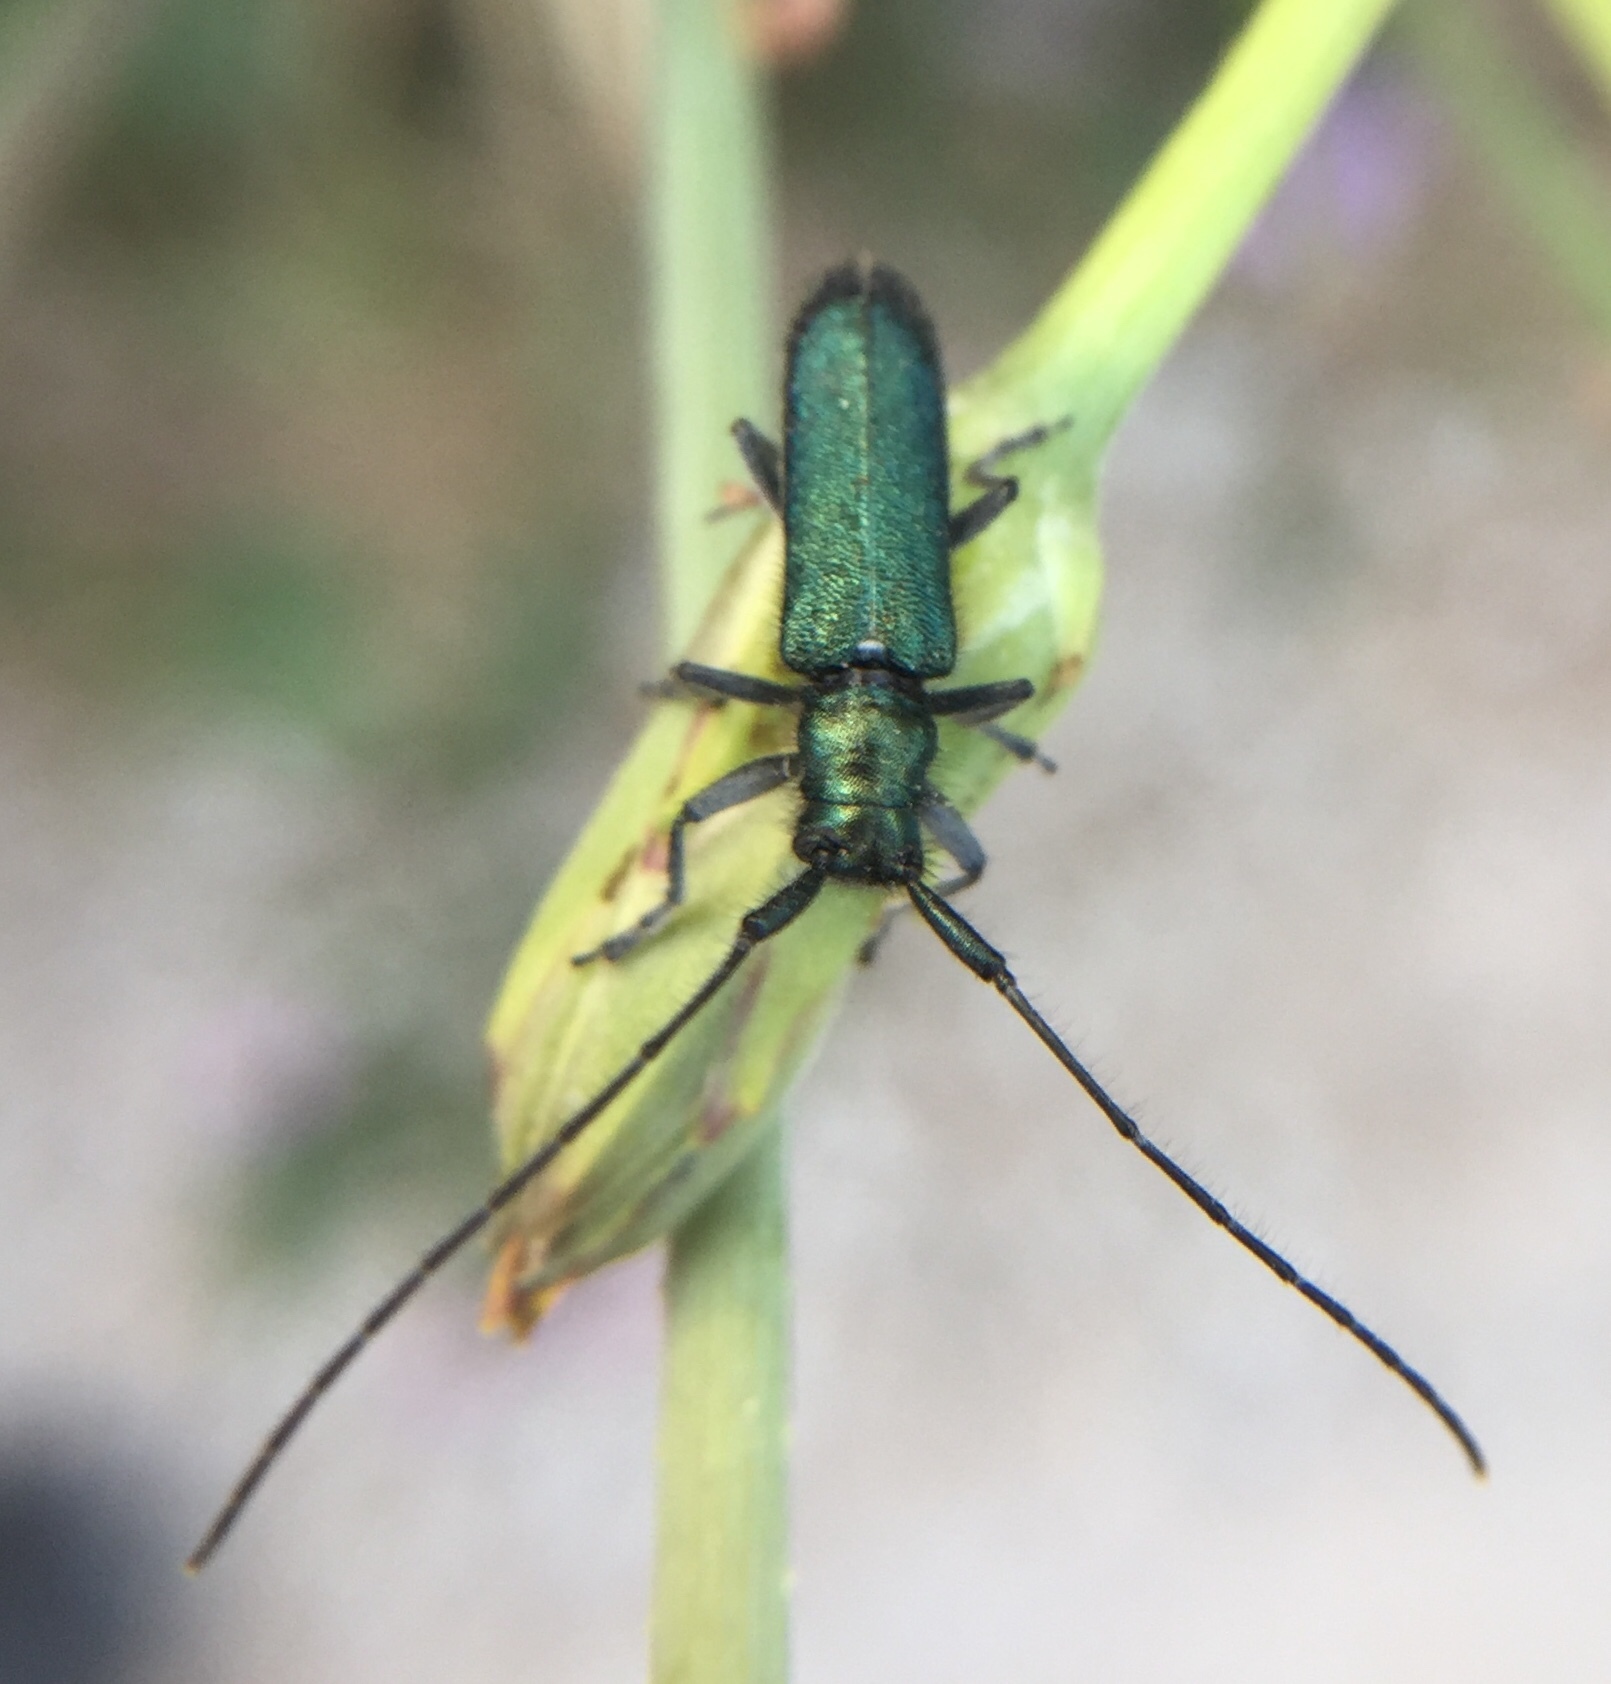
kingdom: Animalia
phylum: Arthropoda
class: Insecta
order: Coleoptera
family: Cerambycidae
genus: Agapanthia
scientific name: Agapanthia violacea
